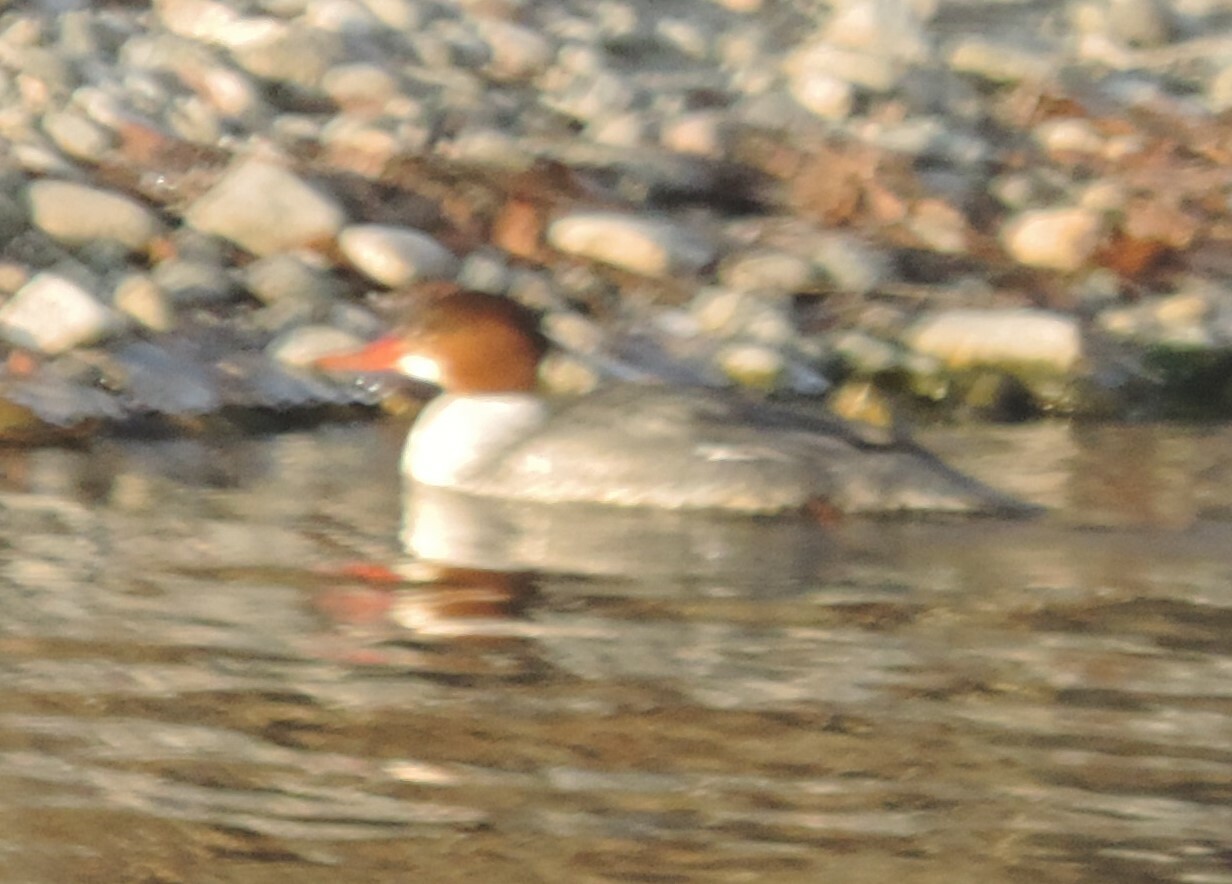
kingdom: Animalia
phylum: Chordata
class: Aves
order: Anseriformes
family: Anatidae
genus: Mergus
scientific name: Mergus merganser
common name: Common merganser
